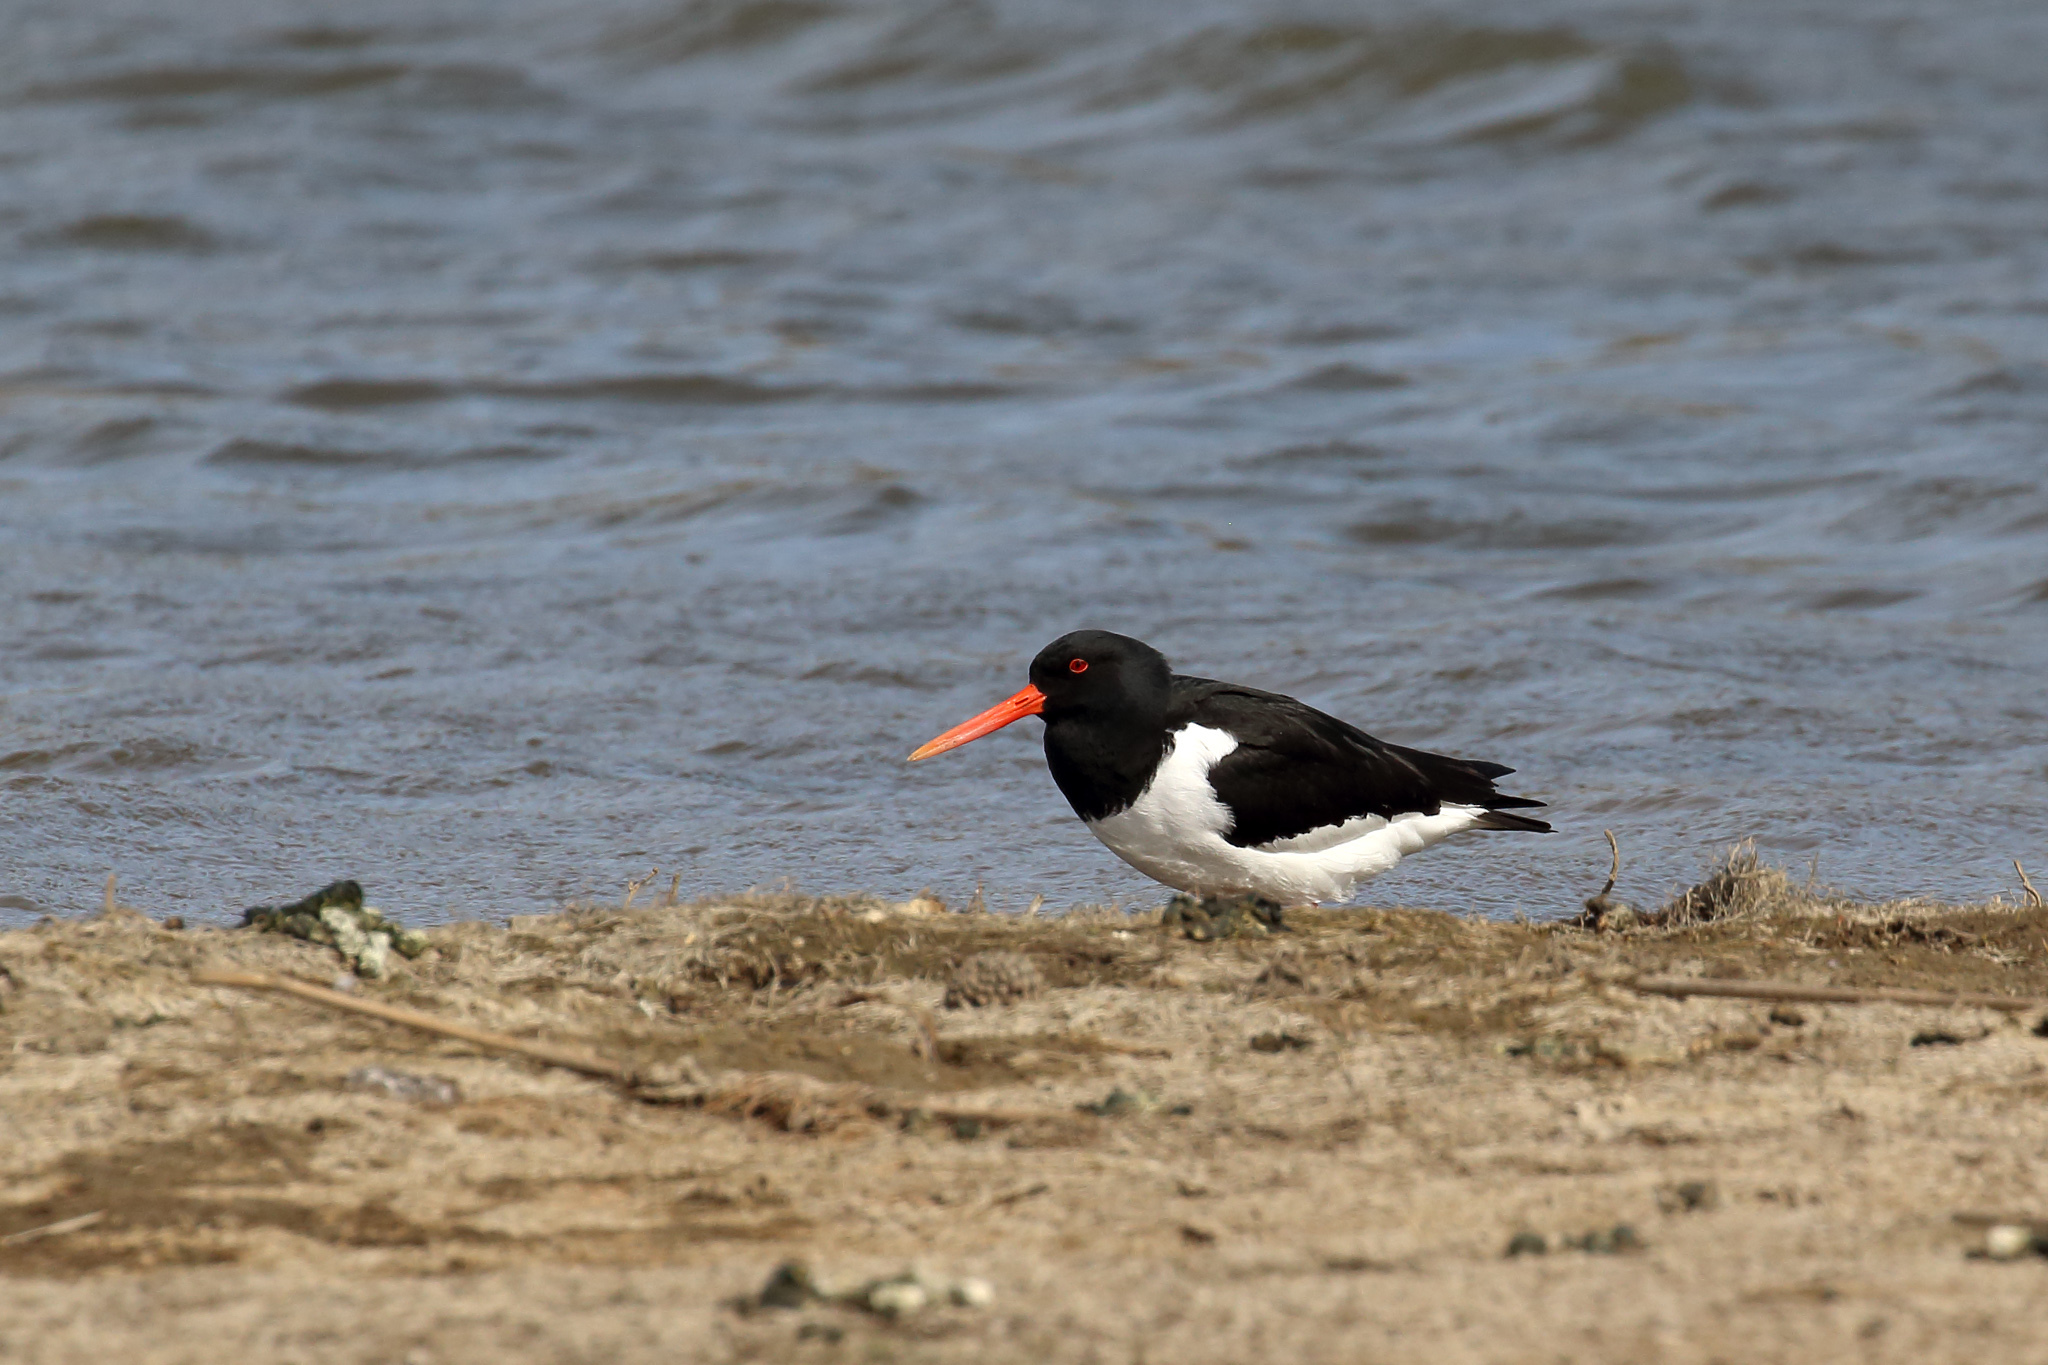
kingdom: Animalia
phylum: Chordata
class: Aves
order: Charadriiformes
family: Haematopodidae
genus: Haematopus
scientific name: Haematopus ostralegus
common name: Eurasian oystercatcher
